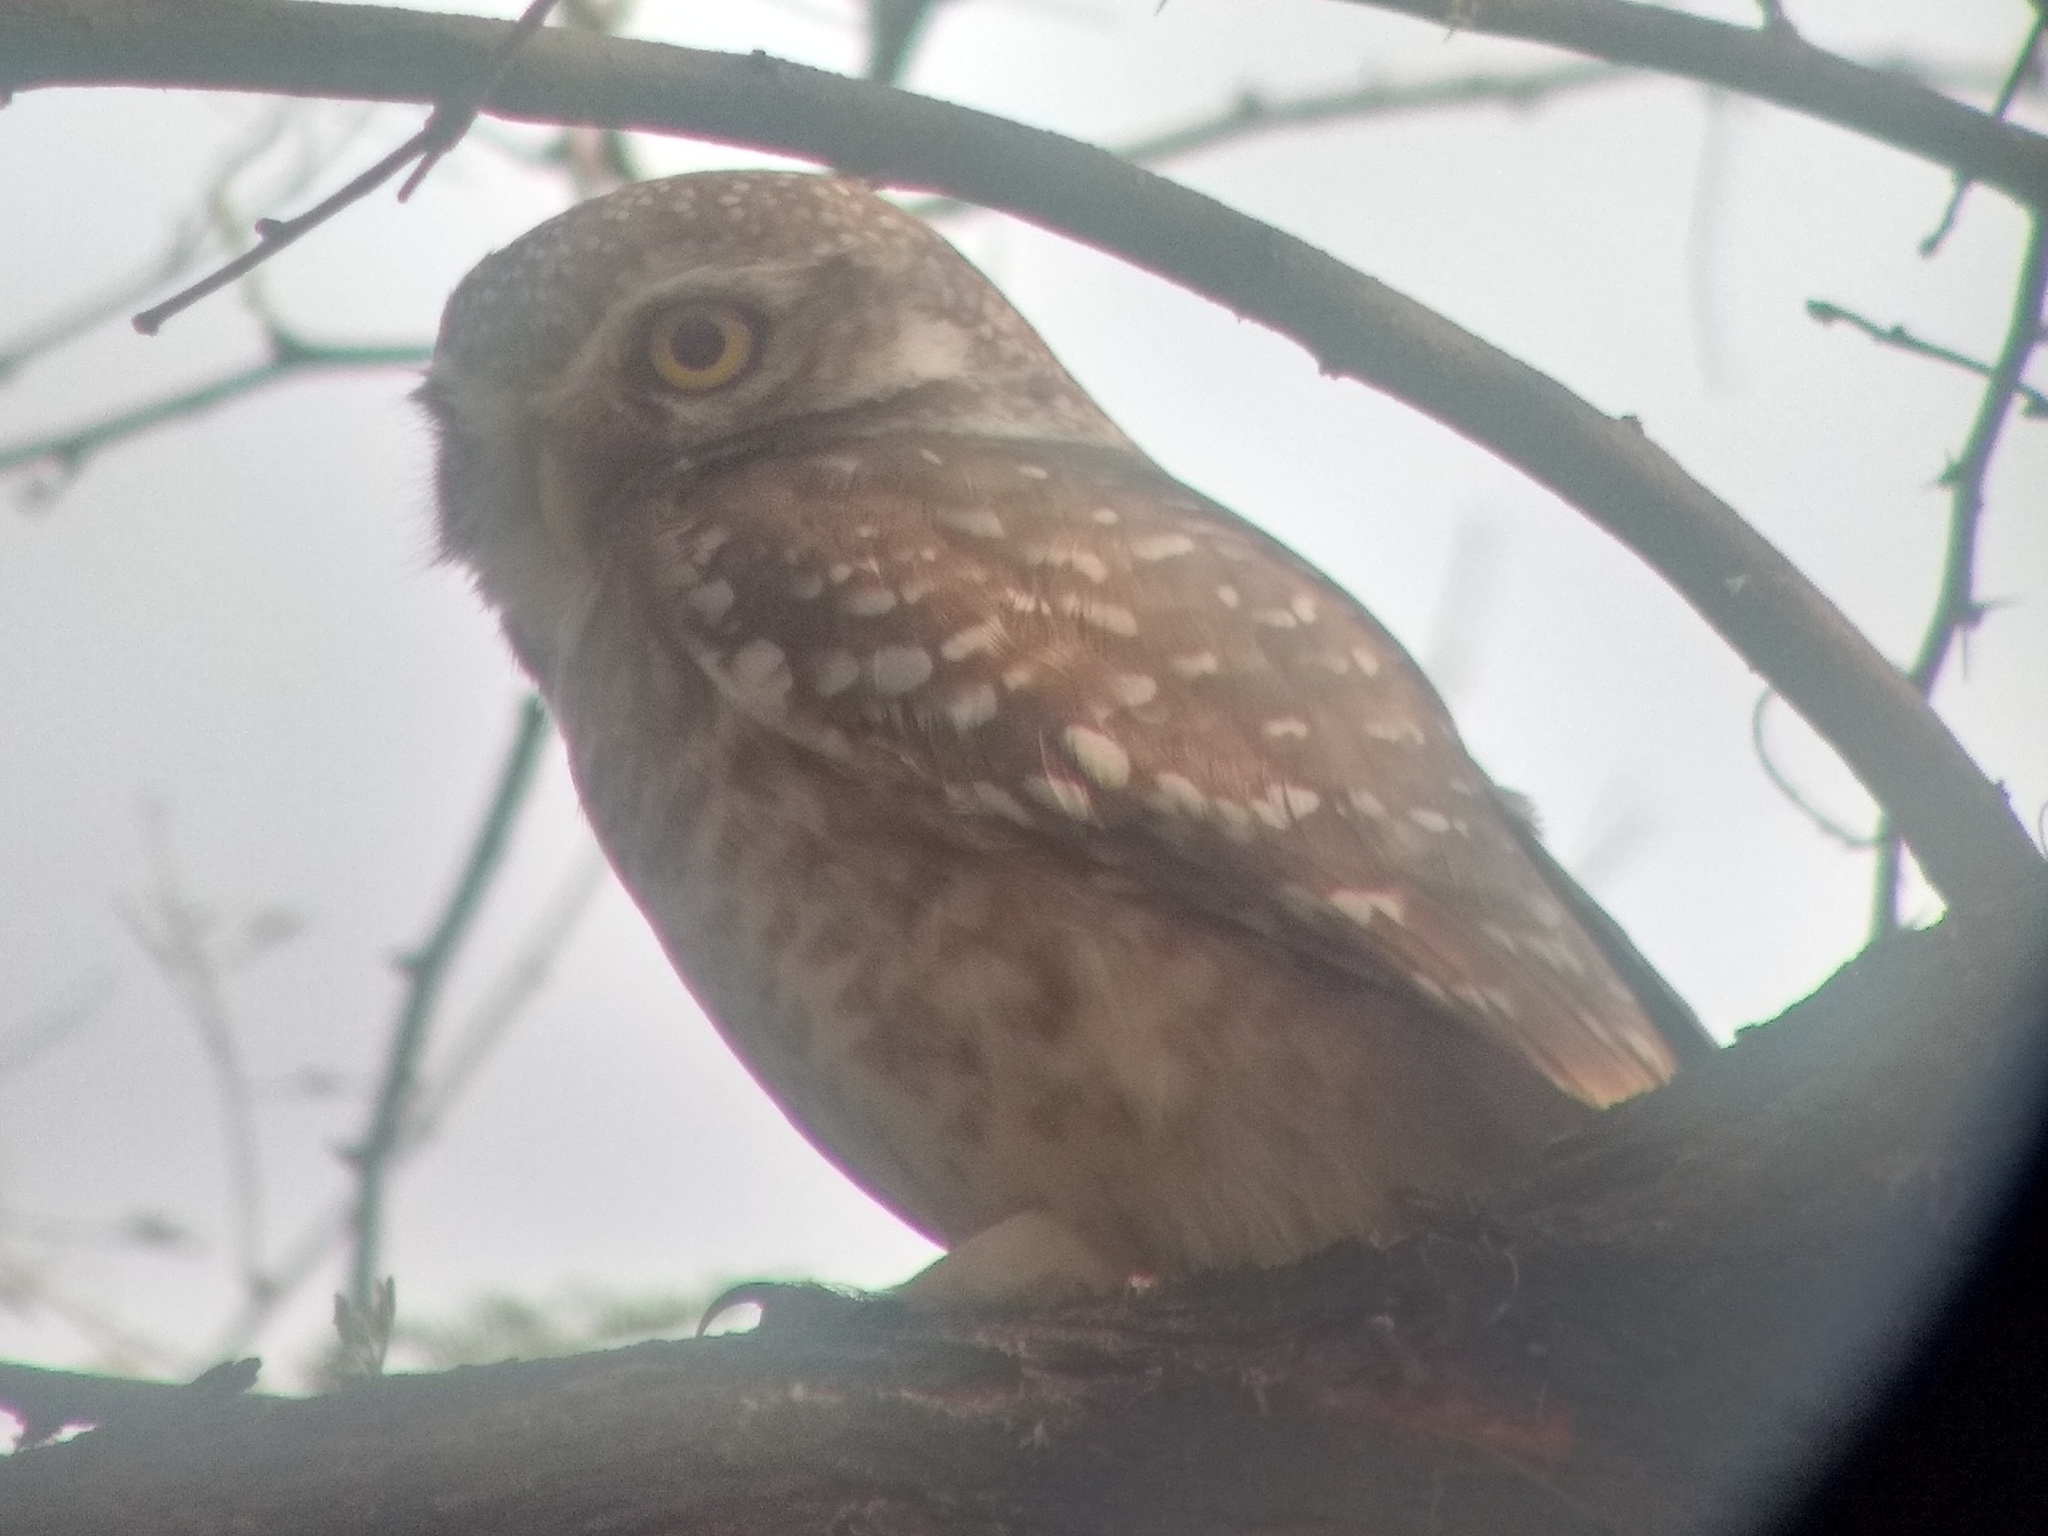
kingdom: Animalia
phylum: Chordata
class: Aves
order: Strigiformes
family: Strigidae
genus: Athene
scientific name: Athene brama
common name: Spotted owlet
